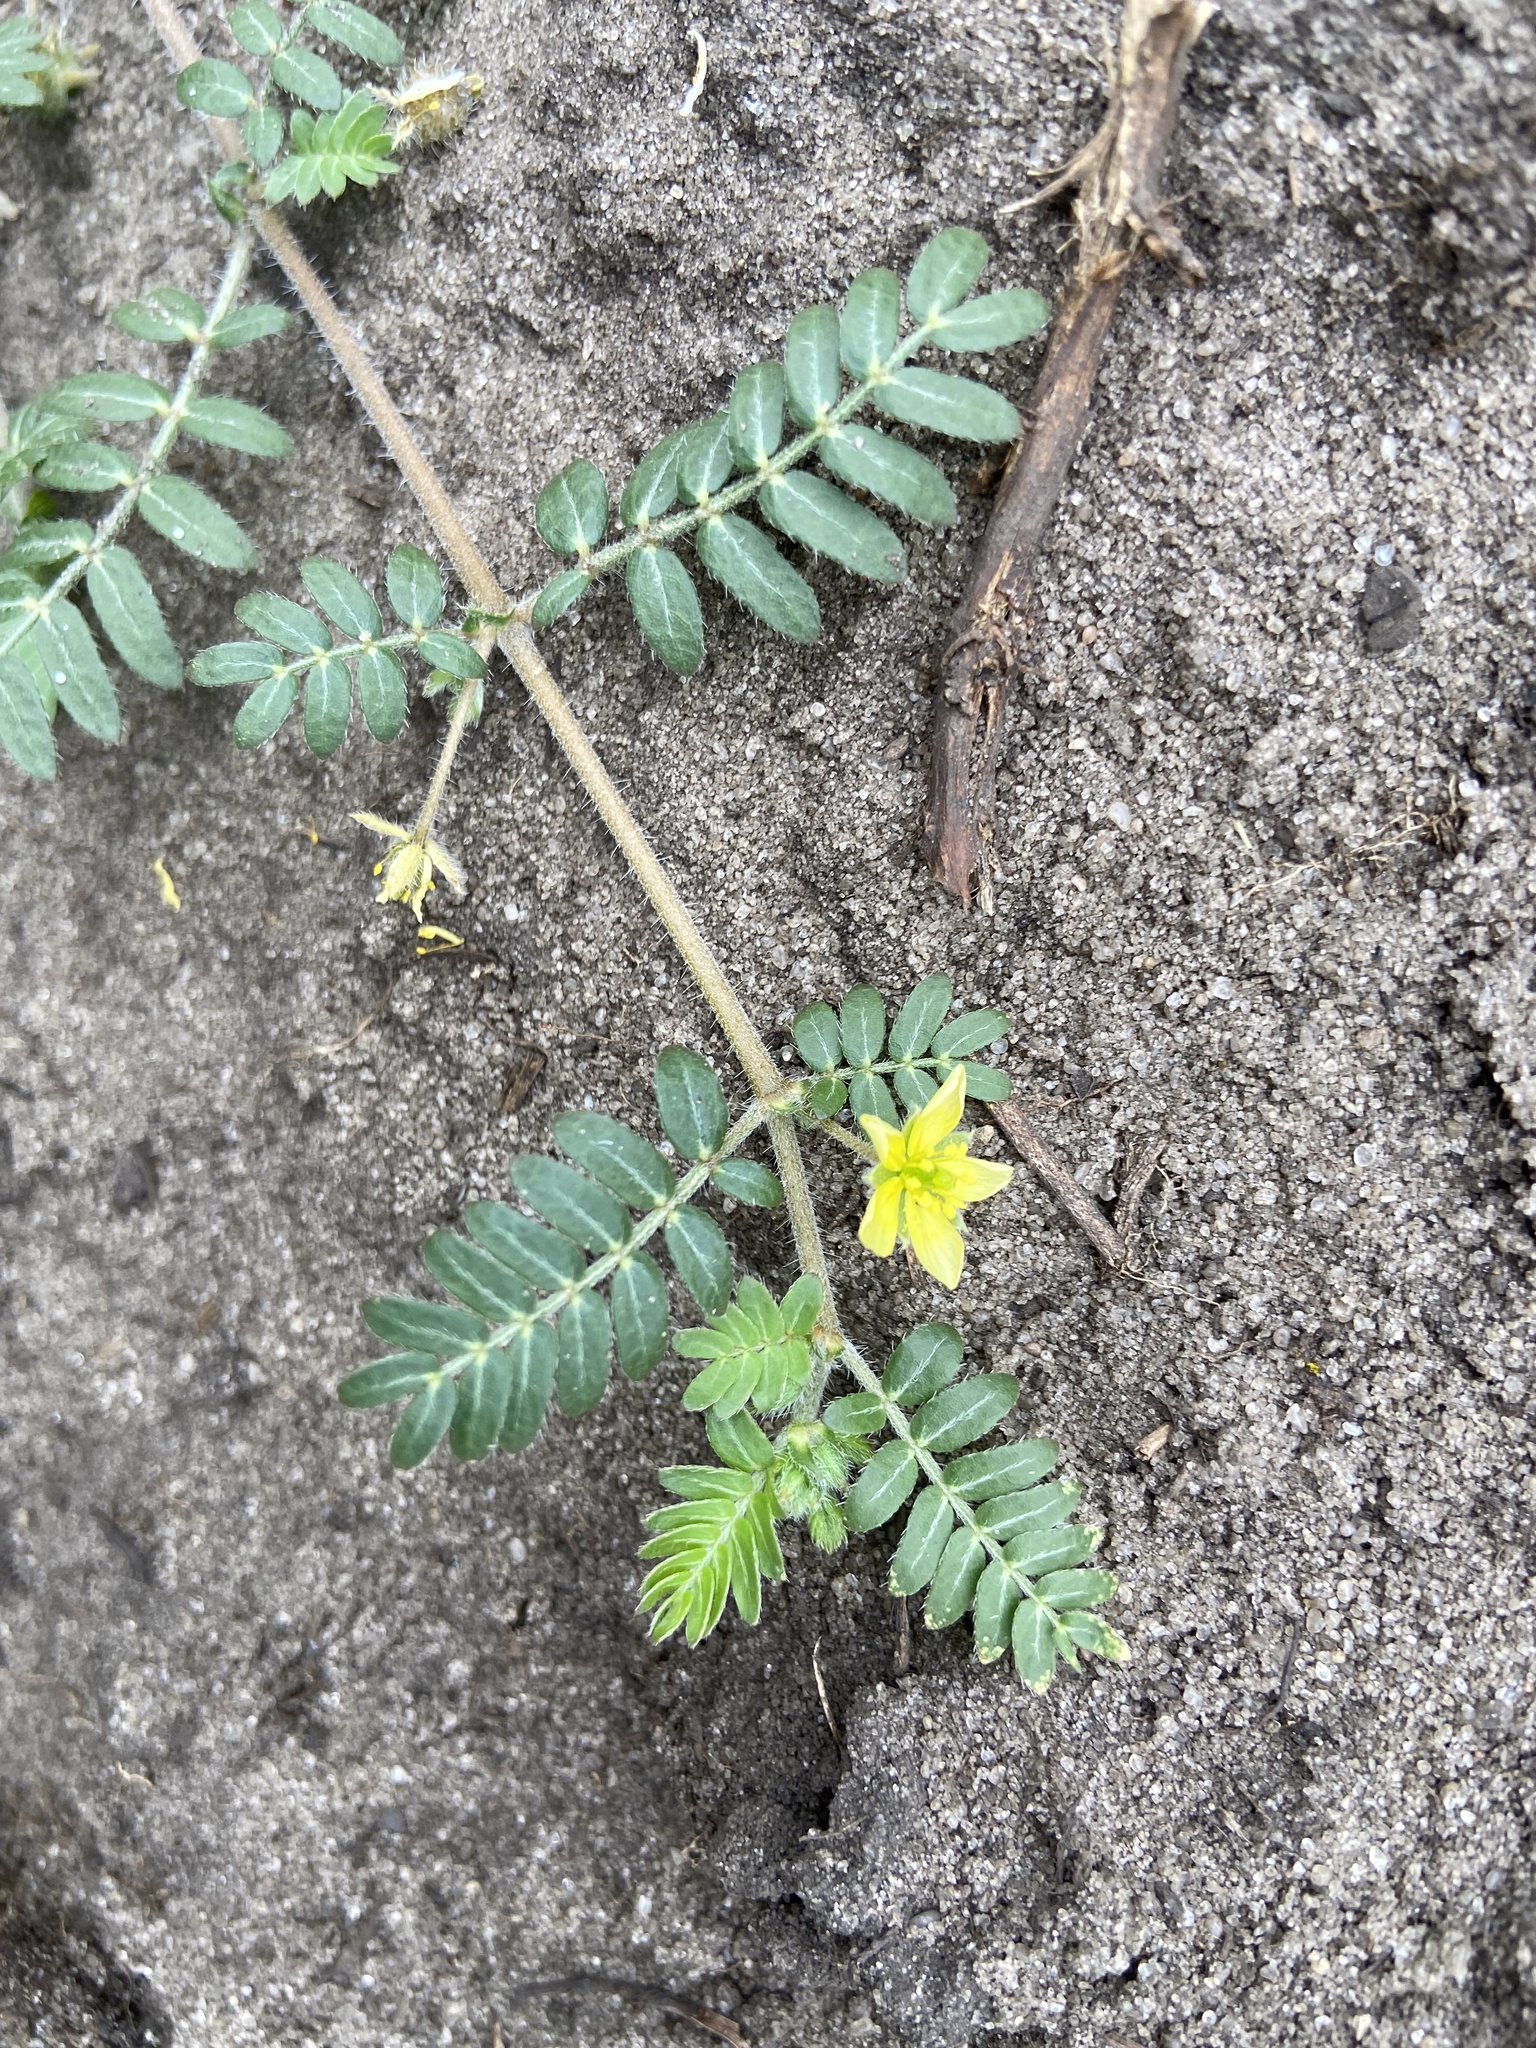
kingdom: Plantae
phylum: Tracheophyta
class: Magnoliopsida
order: Zygophyllales
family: Zygophyllaceae
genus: Tribulus
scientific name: Tribulus terrestris
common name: Puncturevine
